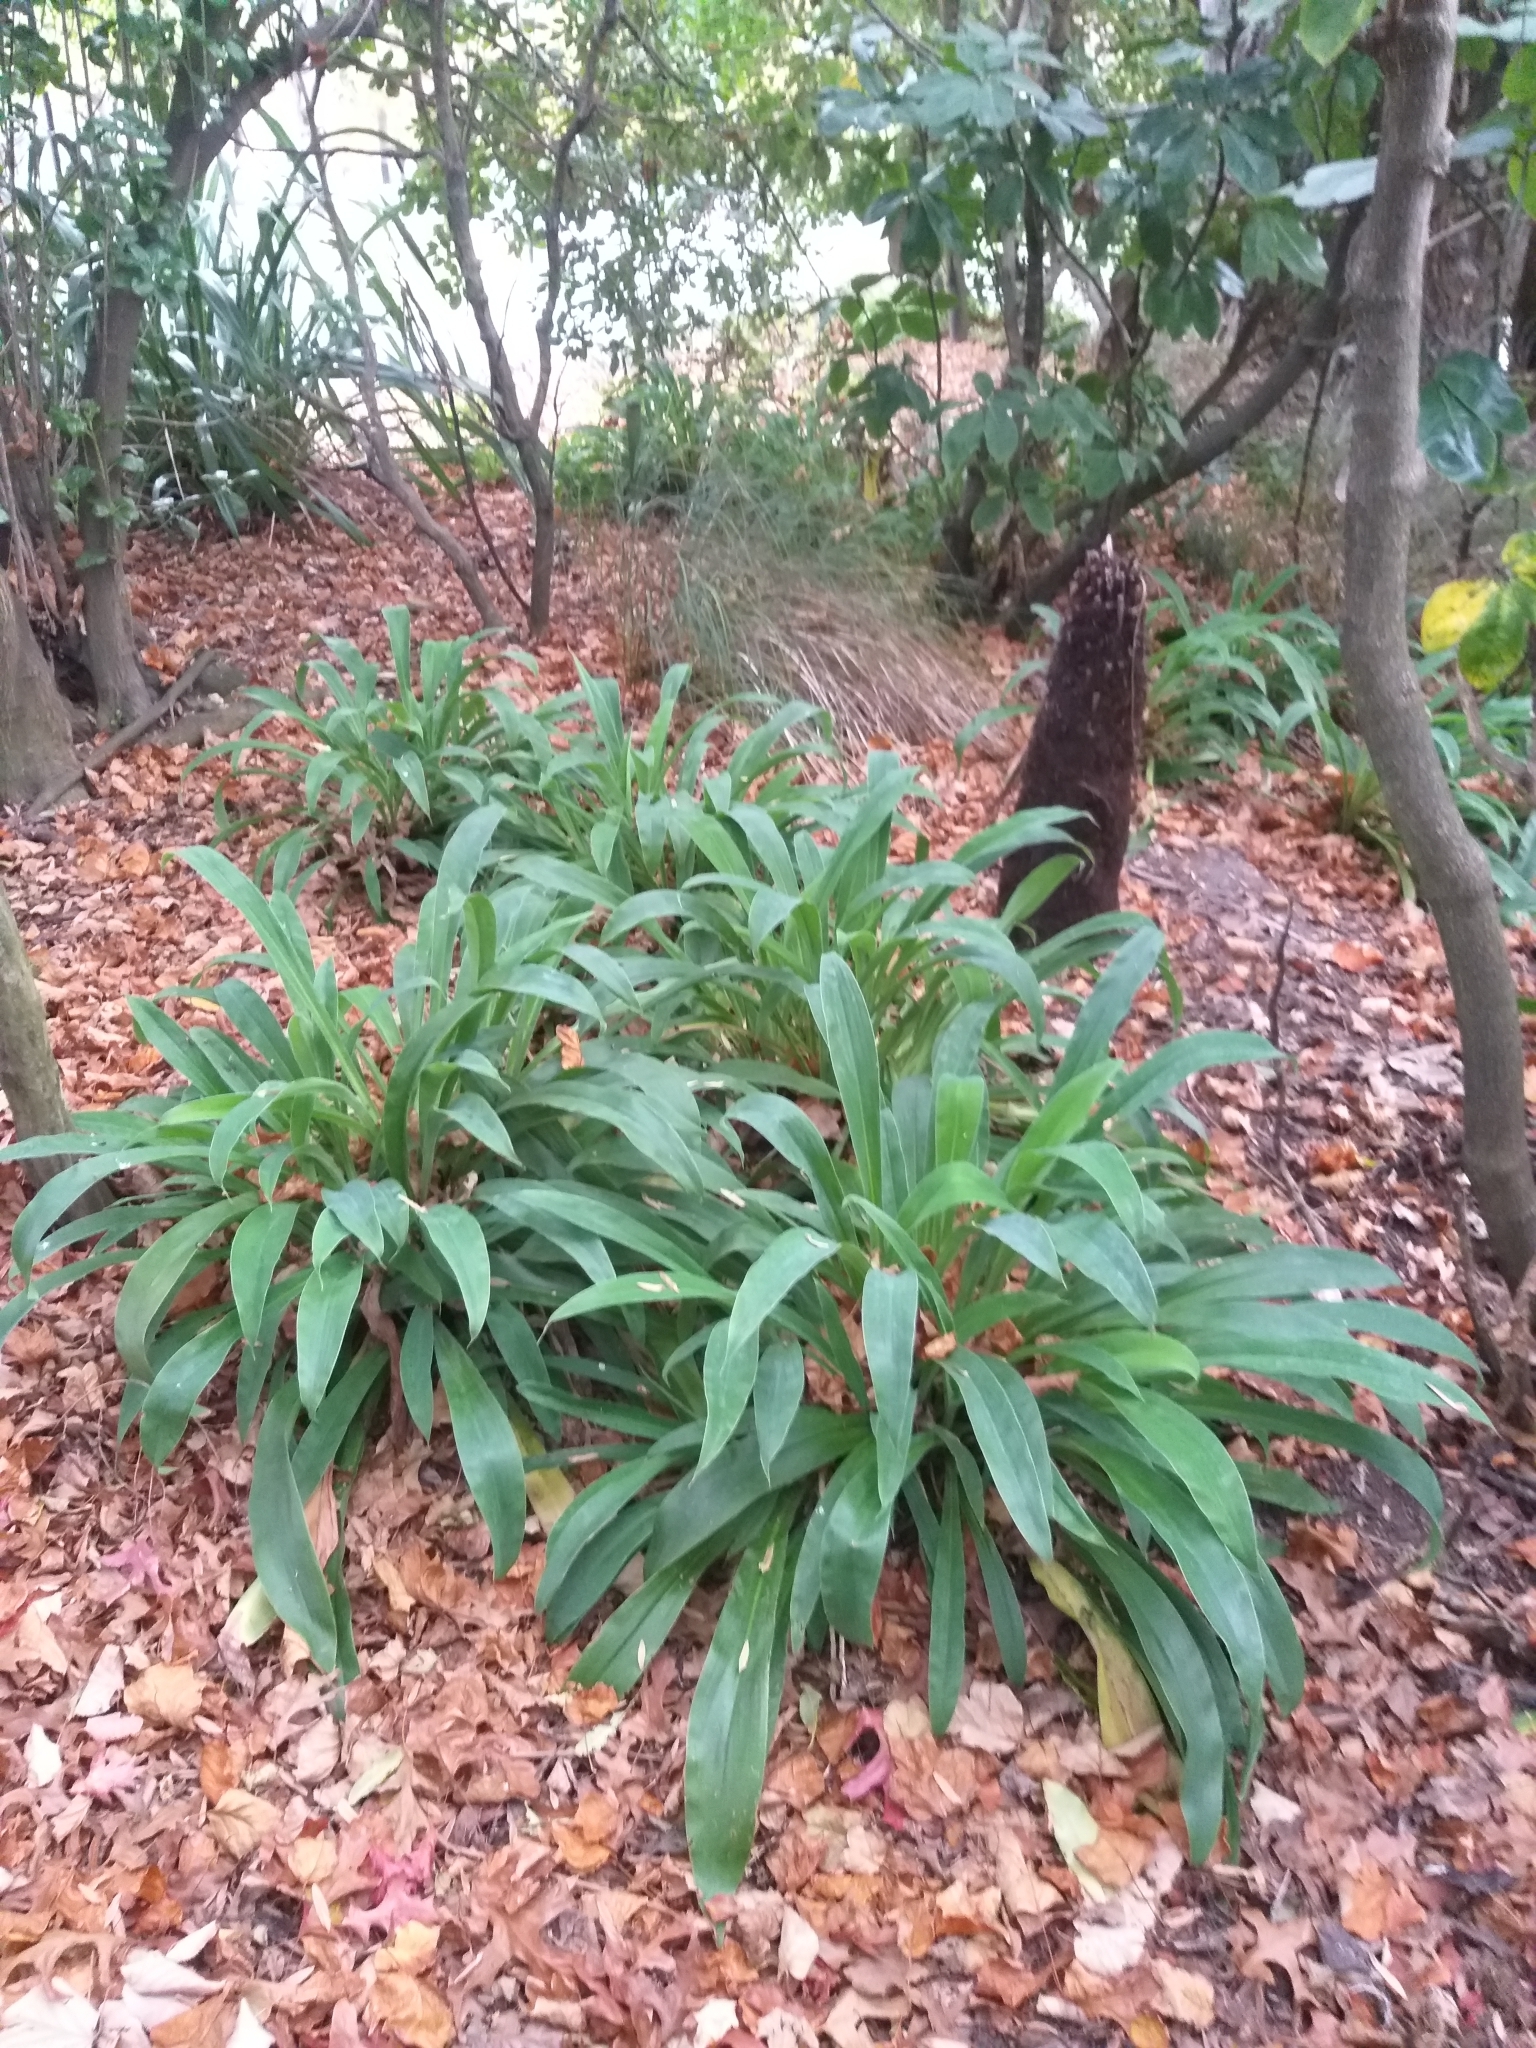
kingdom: Plantae
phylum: Tracheophyta
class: Liliopsida
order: Asparagales
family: Asparagaceae
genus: Arthropodium
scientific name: Arthropodium cirratum
